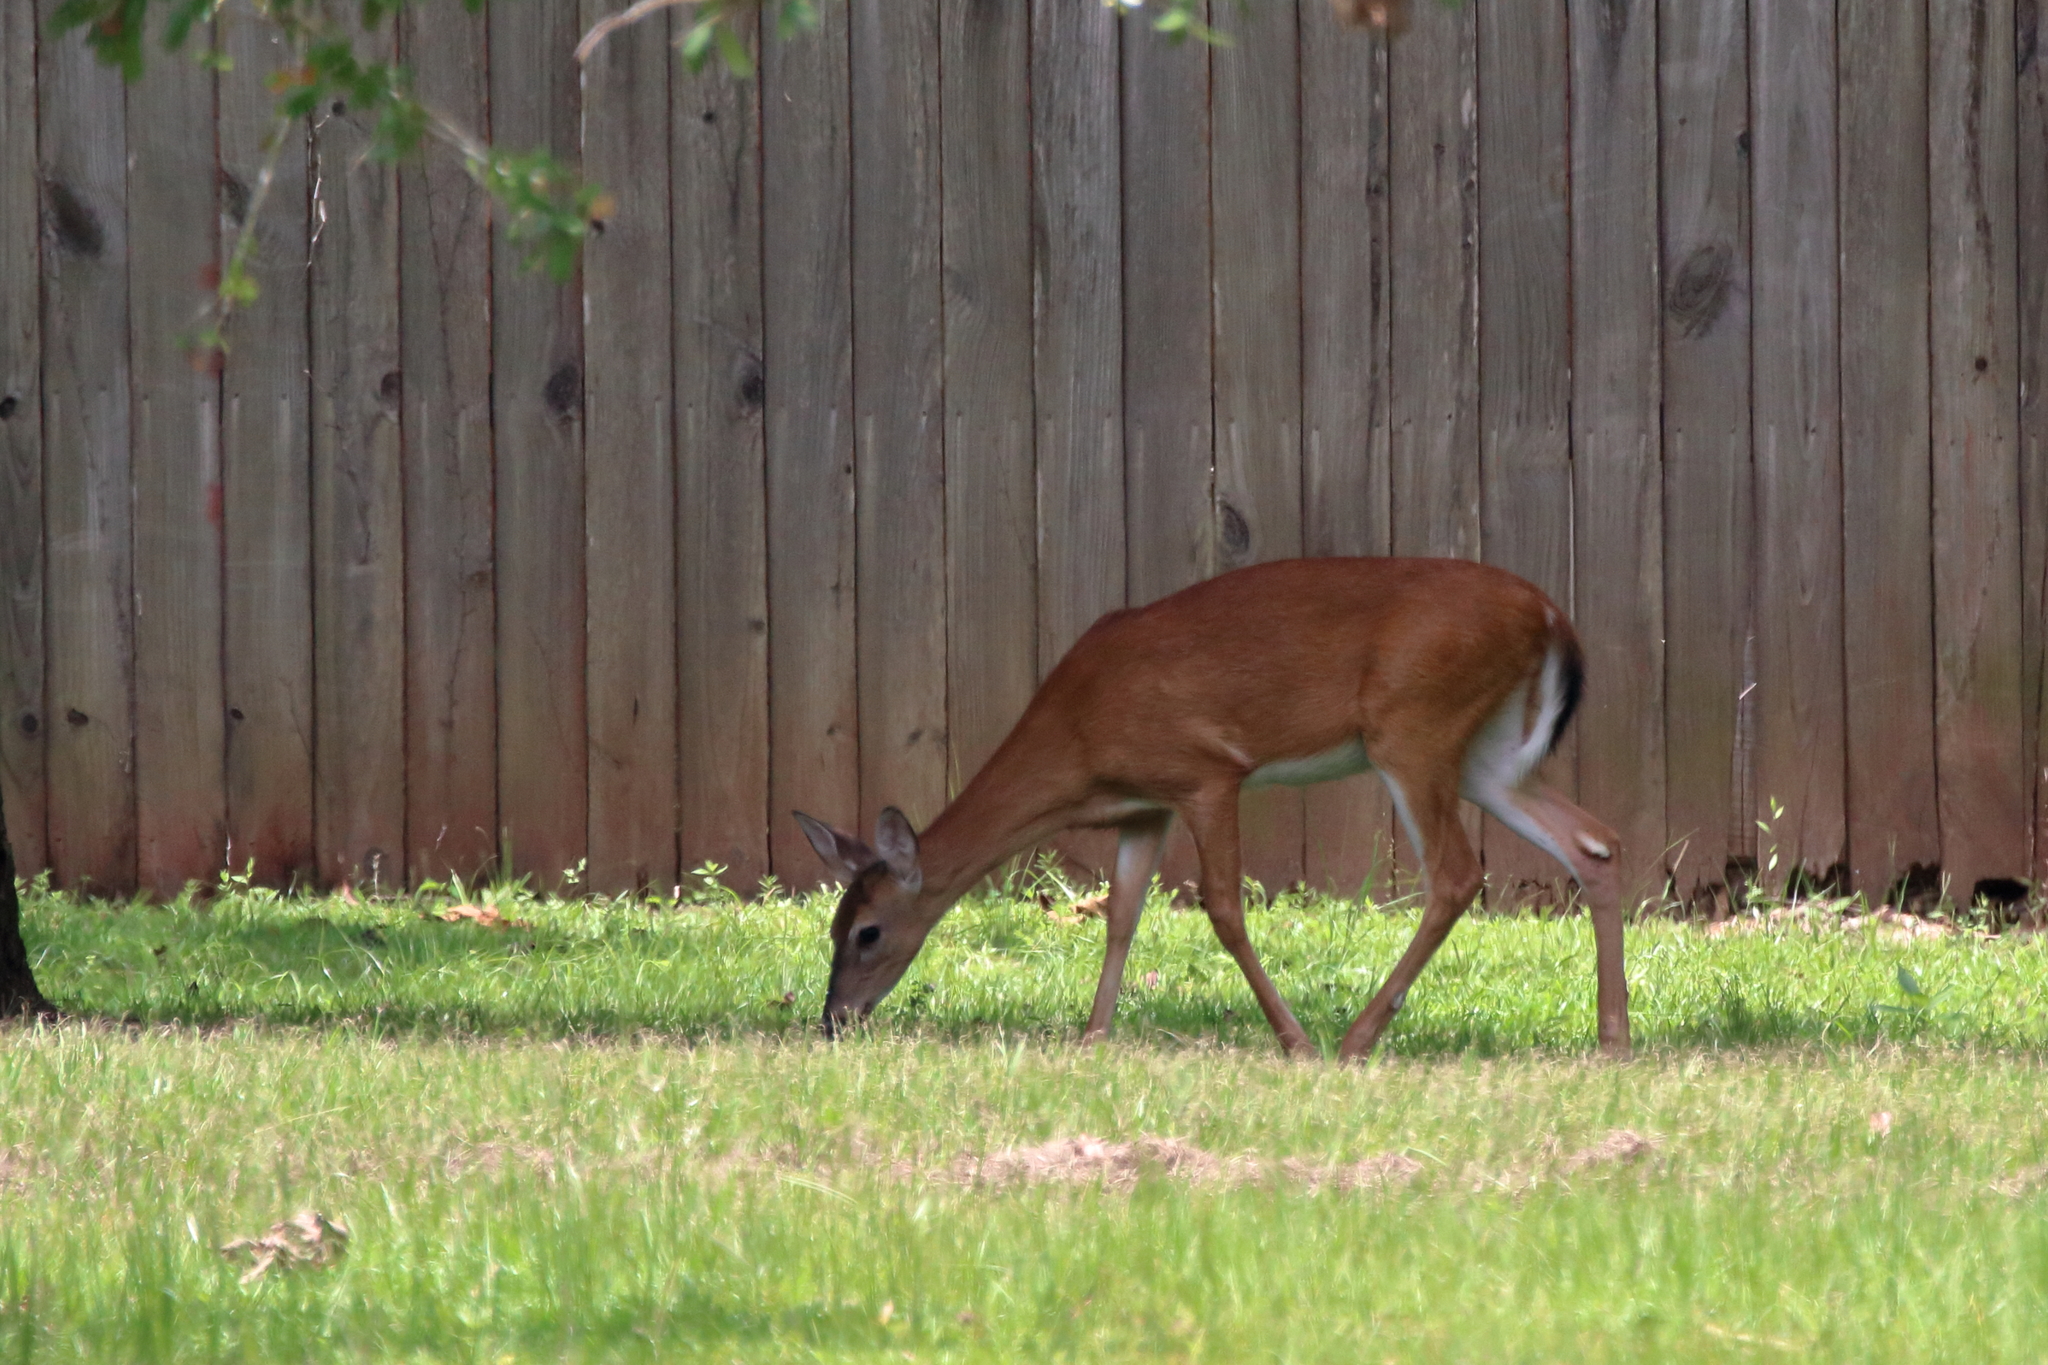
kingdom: Animalia
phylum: Chordata
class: Mammalia
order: Artiodactyla
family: Cervidae
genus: Odocoileus
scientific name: Odocoileus virginianus
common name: White-tailed deer
